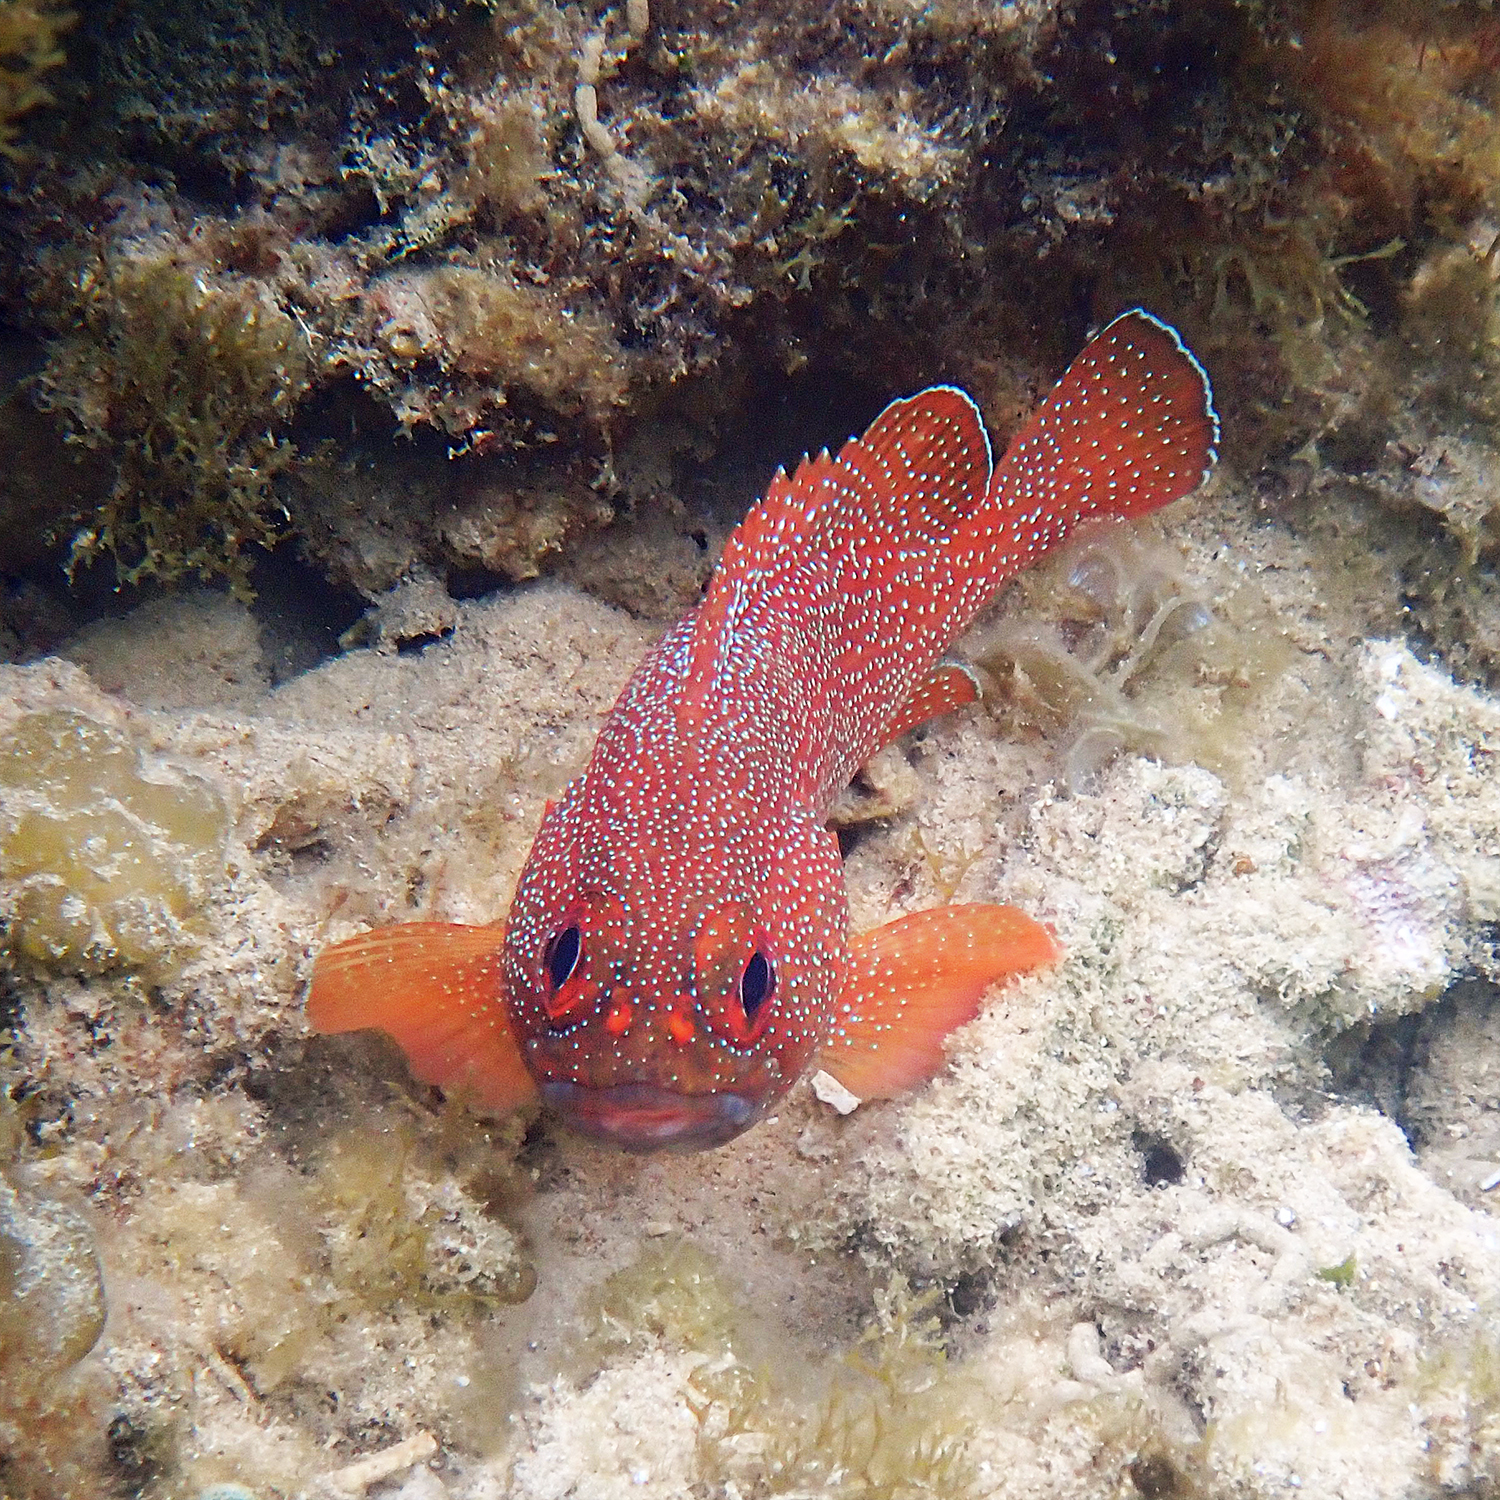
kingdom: Animalia
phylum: Chordata
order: Perciformes
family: Serranidae
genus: Trachypoma
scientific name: Trachypoma macracanthus
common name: Toadstool grouper
